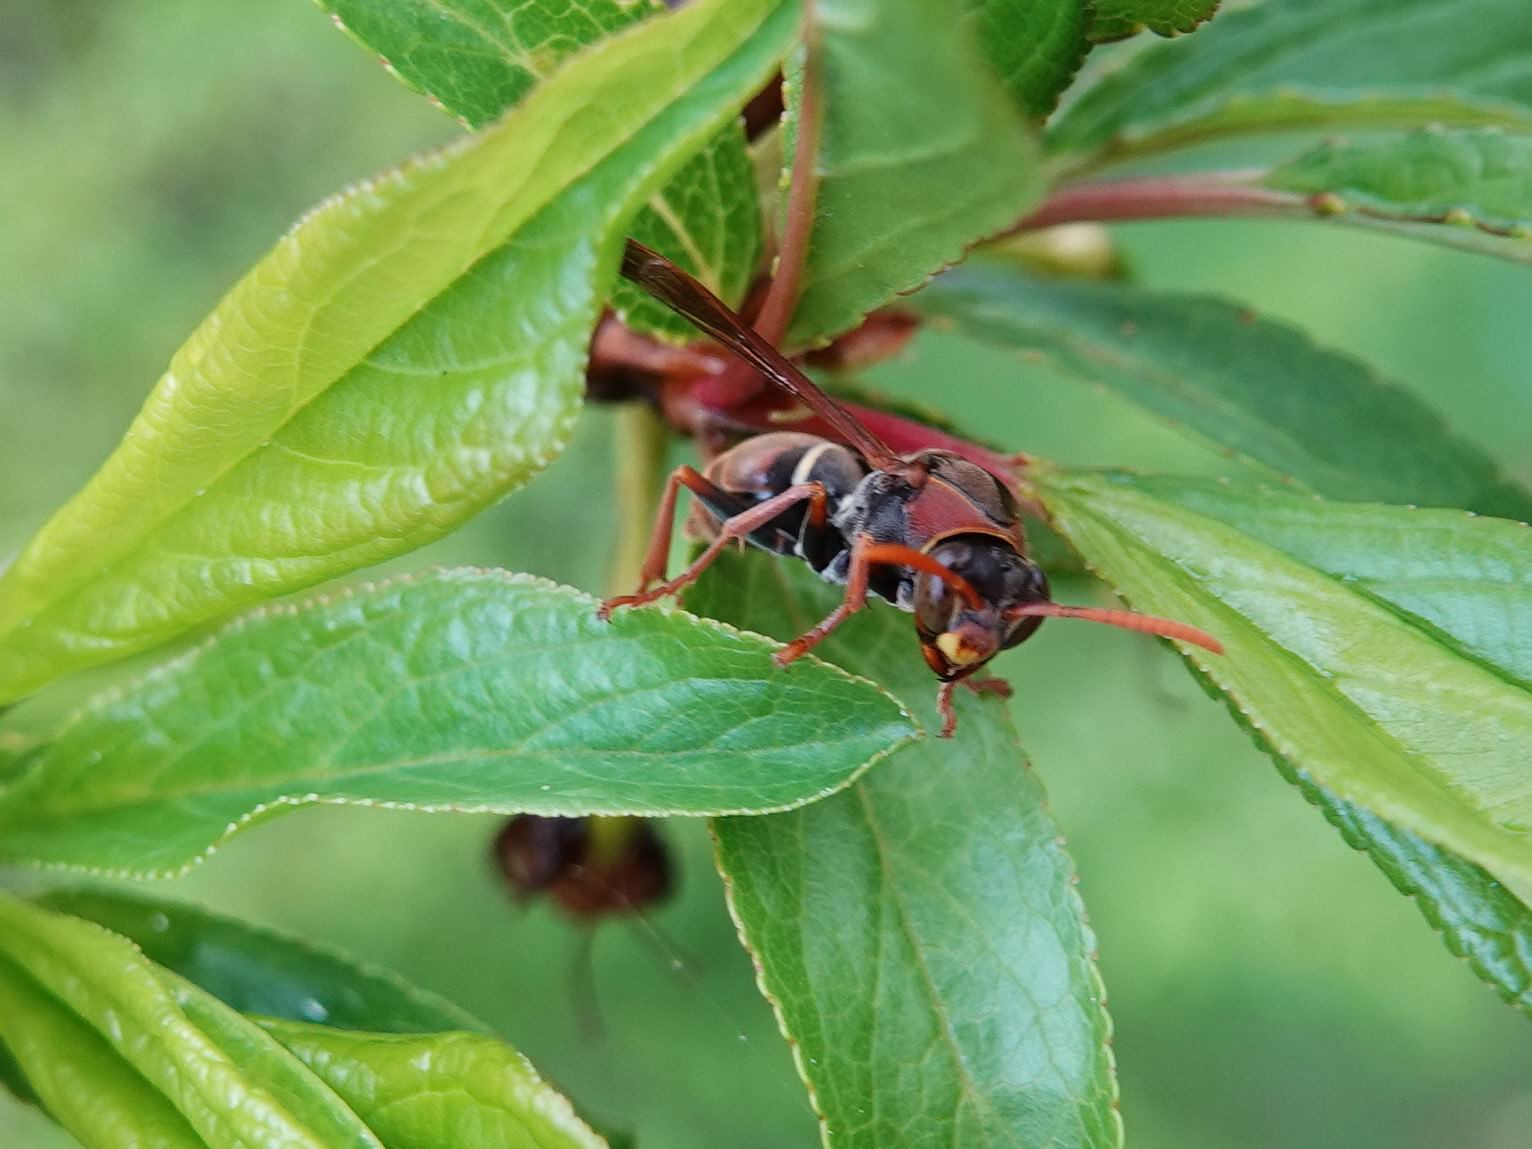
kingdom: Animalia
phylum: Arthropoda
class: Insecta
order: Hymenoptera
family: Eumenidae
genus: Polistes
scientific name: Polistes humilis
